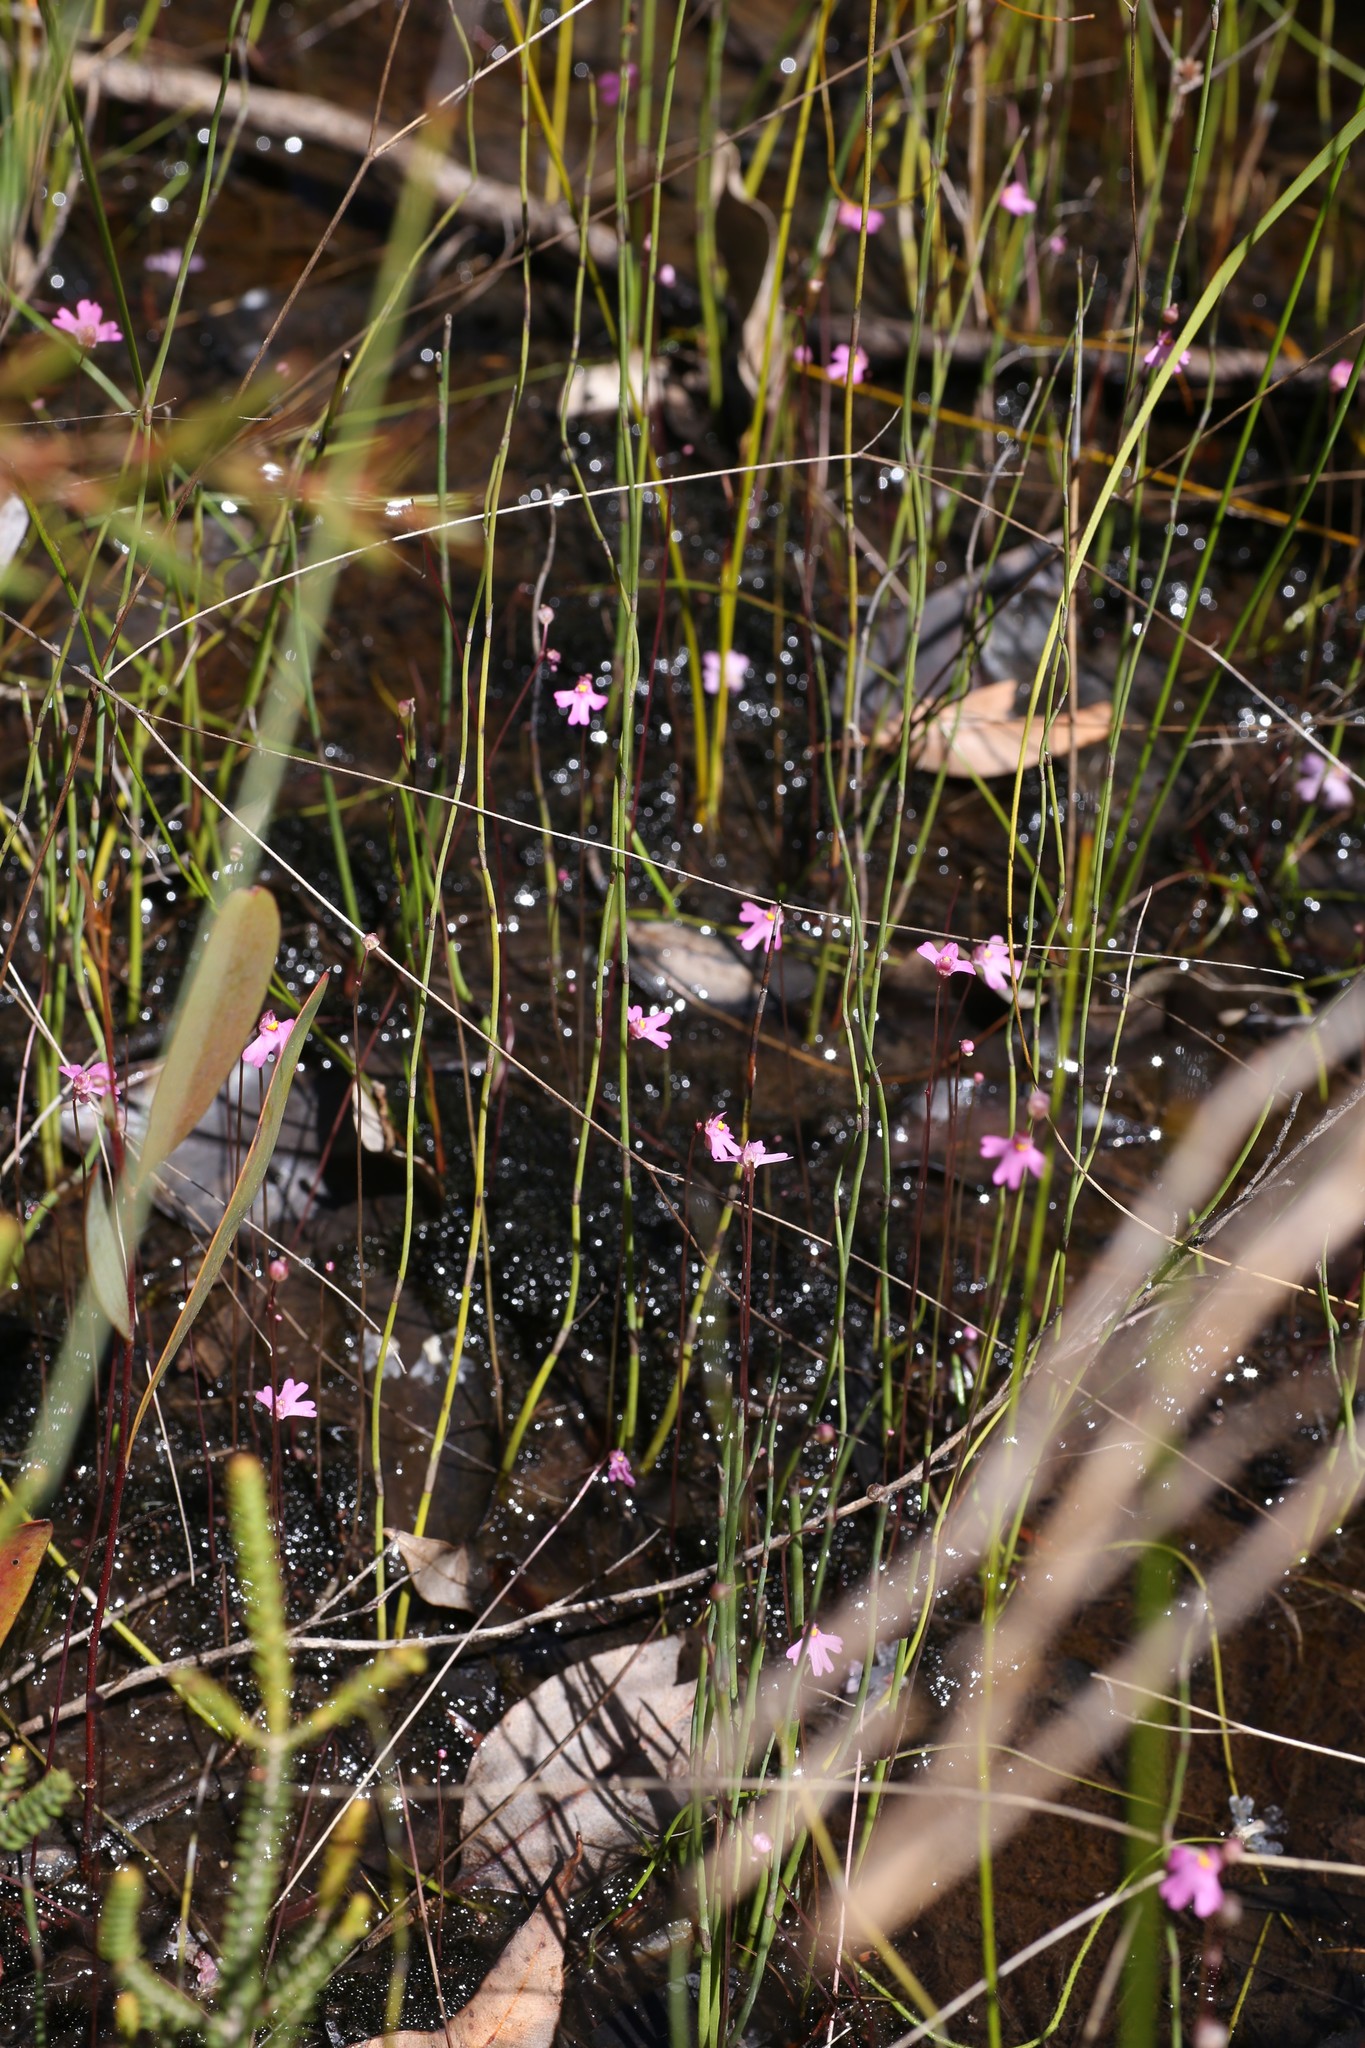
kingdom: Plantae
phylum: Tracheophyta
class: Magnoliopsida
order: Lamiales
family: Lentibulariaceae
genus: Utricularia
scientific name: Utricularia multifida
